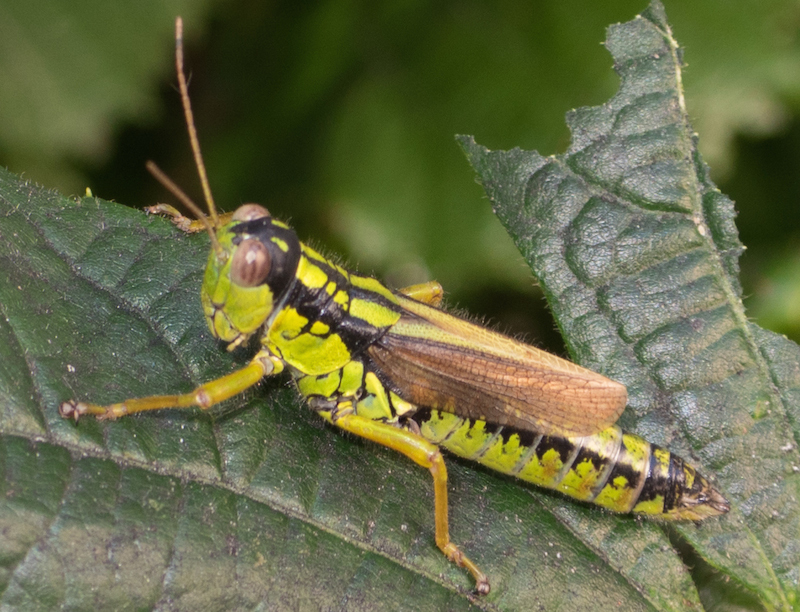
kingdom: Animalia
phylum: Arthropoda
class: Insecta
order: Orthoptera
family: Acrididae
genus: Miramella
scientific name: Miramella irena
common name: Long-winged mountain grasshopper
